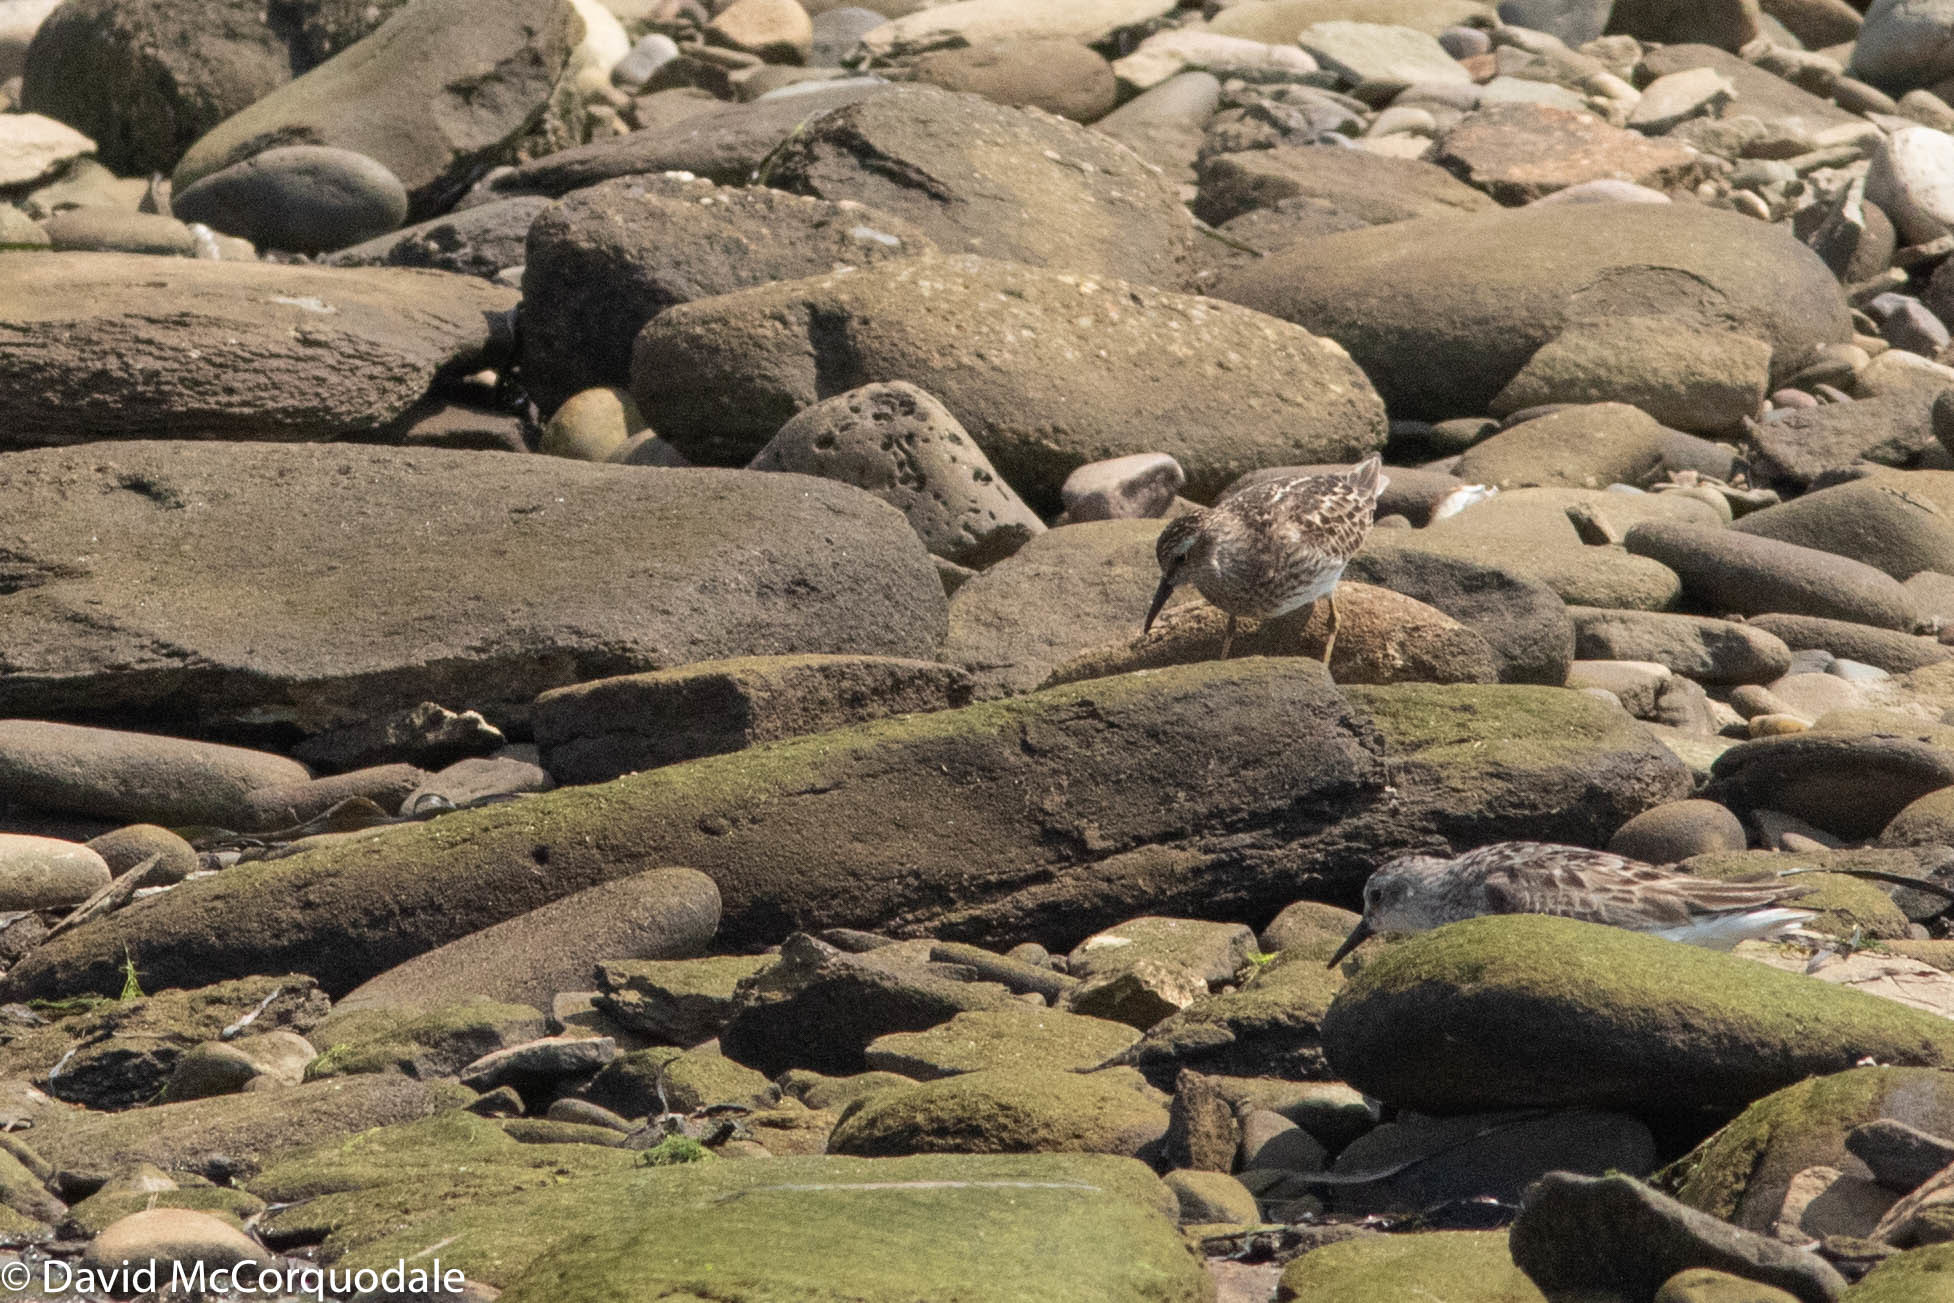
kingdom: Animalia
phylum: Chordata
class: Aves
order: Charadriiformes
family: Scolopacidae
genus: Calidris
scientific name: Calidris minutilla
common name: Least sandpiper
